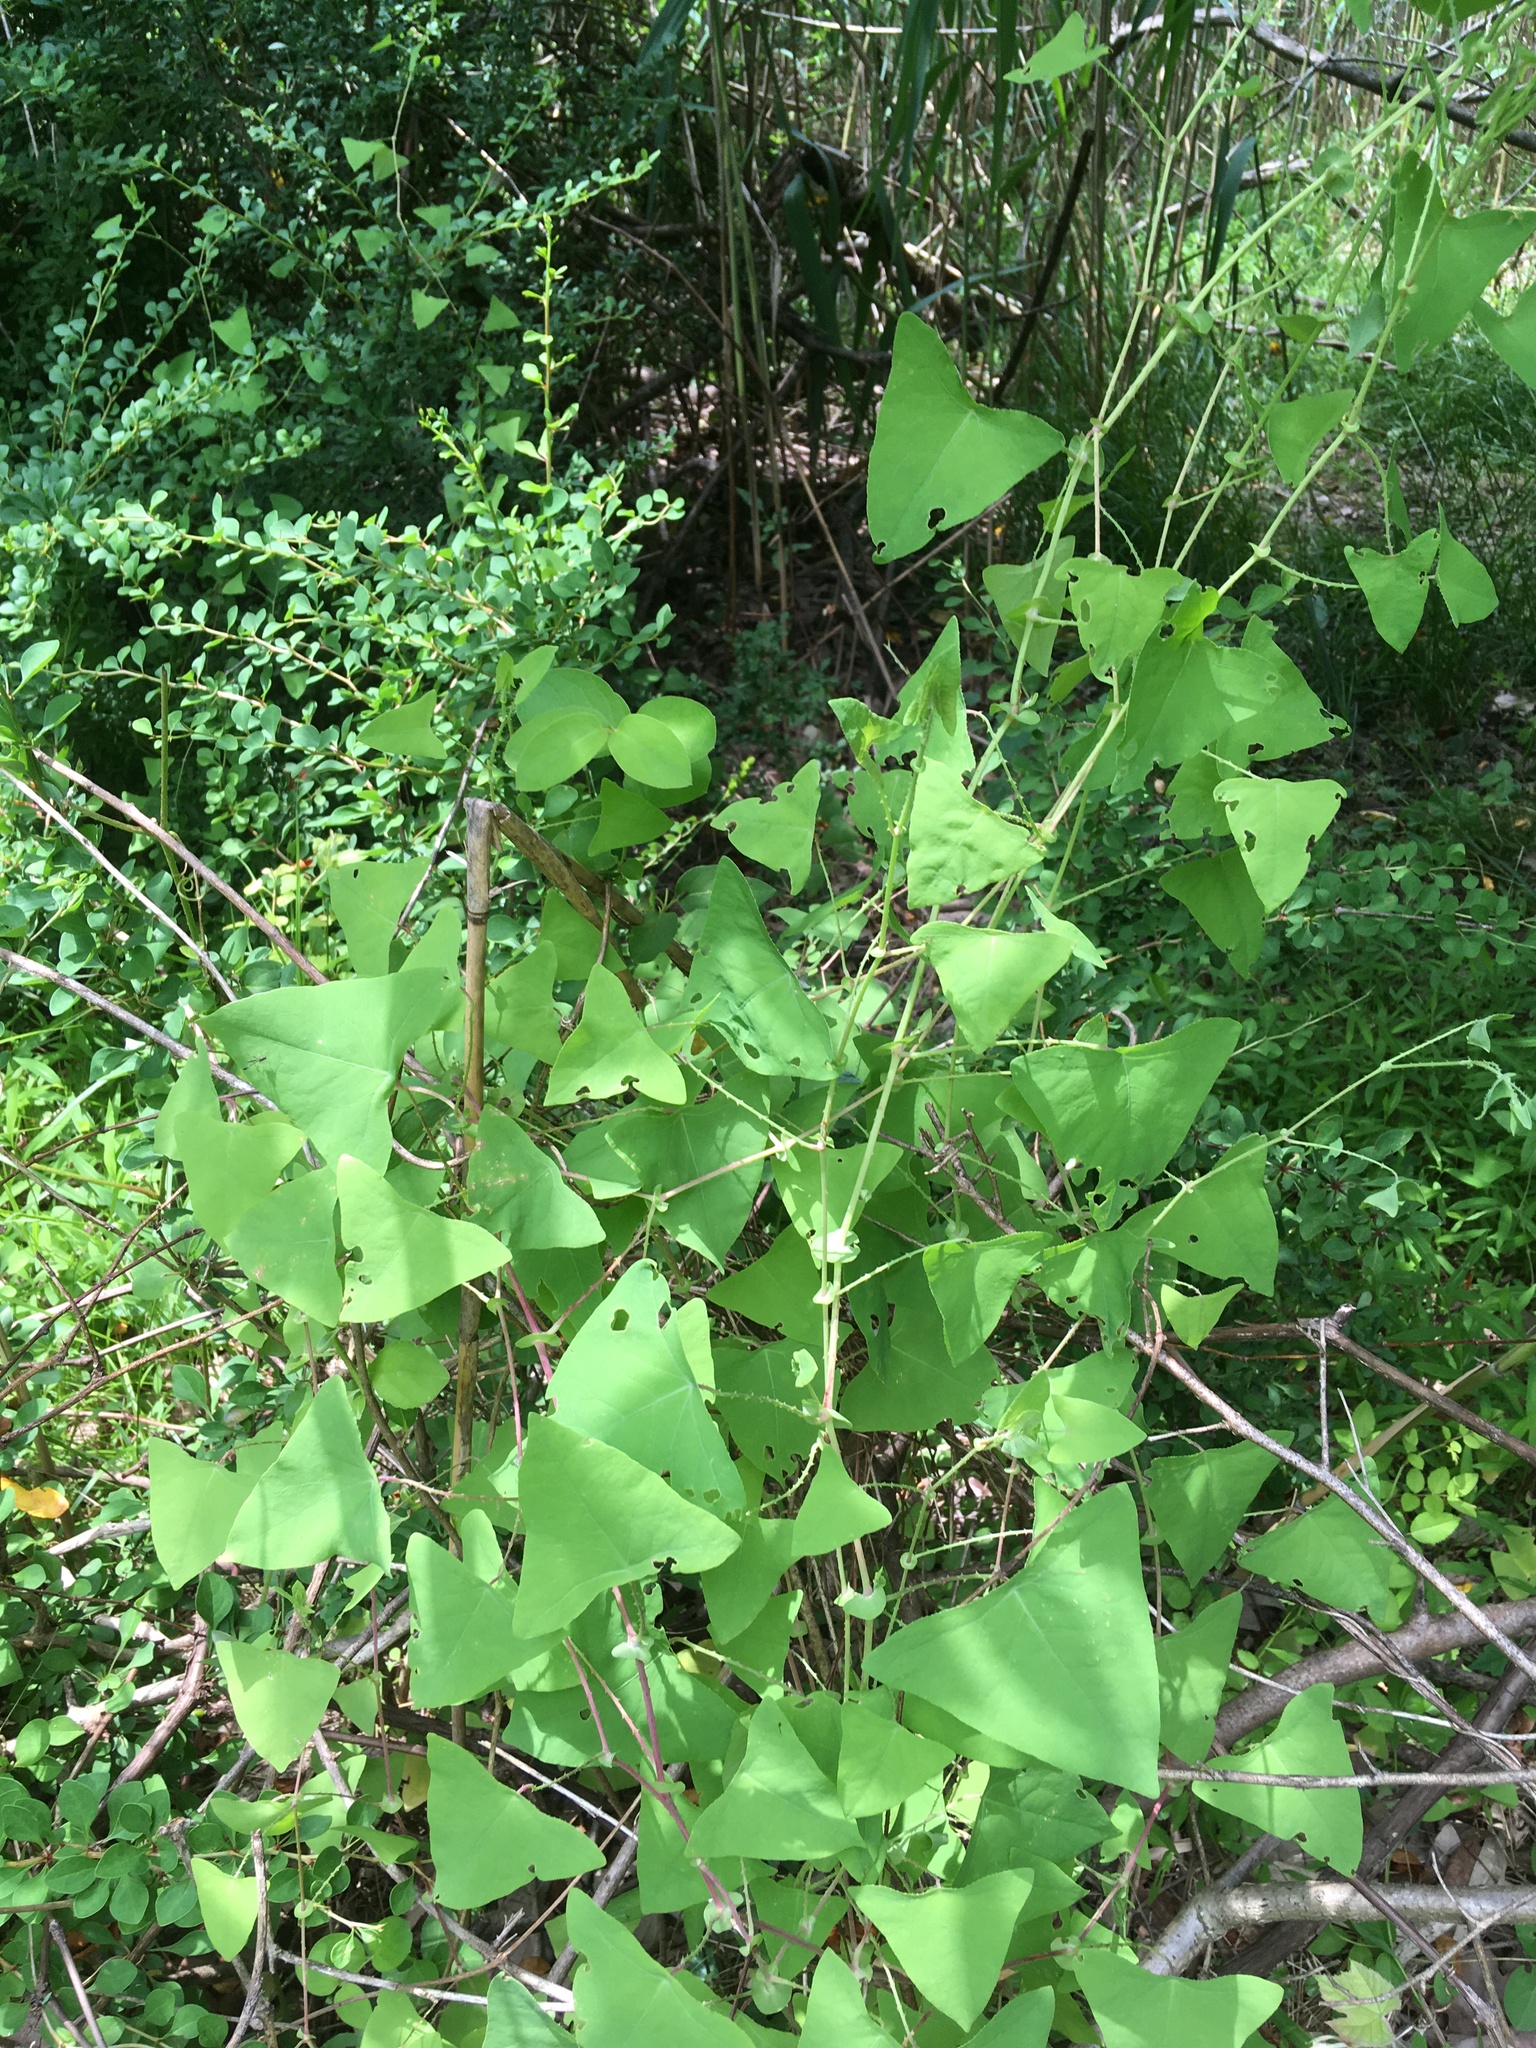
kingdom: Plantae
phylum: Tracheophyta
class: Magnoliopsida
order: Caryophyllales
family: Polygonaceae
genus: Persicaria
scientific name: Persicaria perfoliata
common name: Asiatic tearthumb
